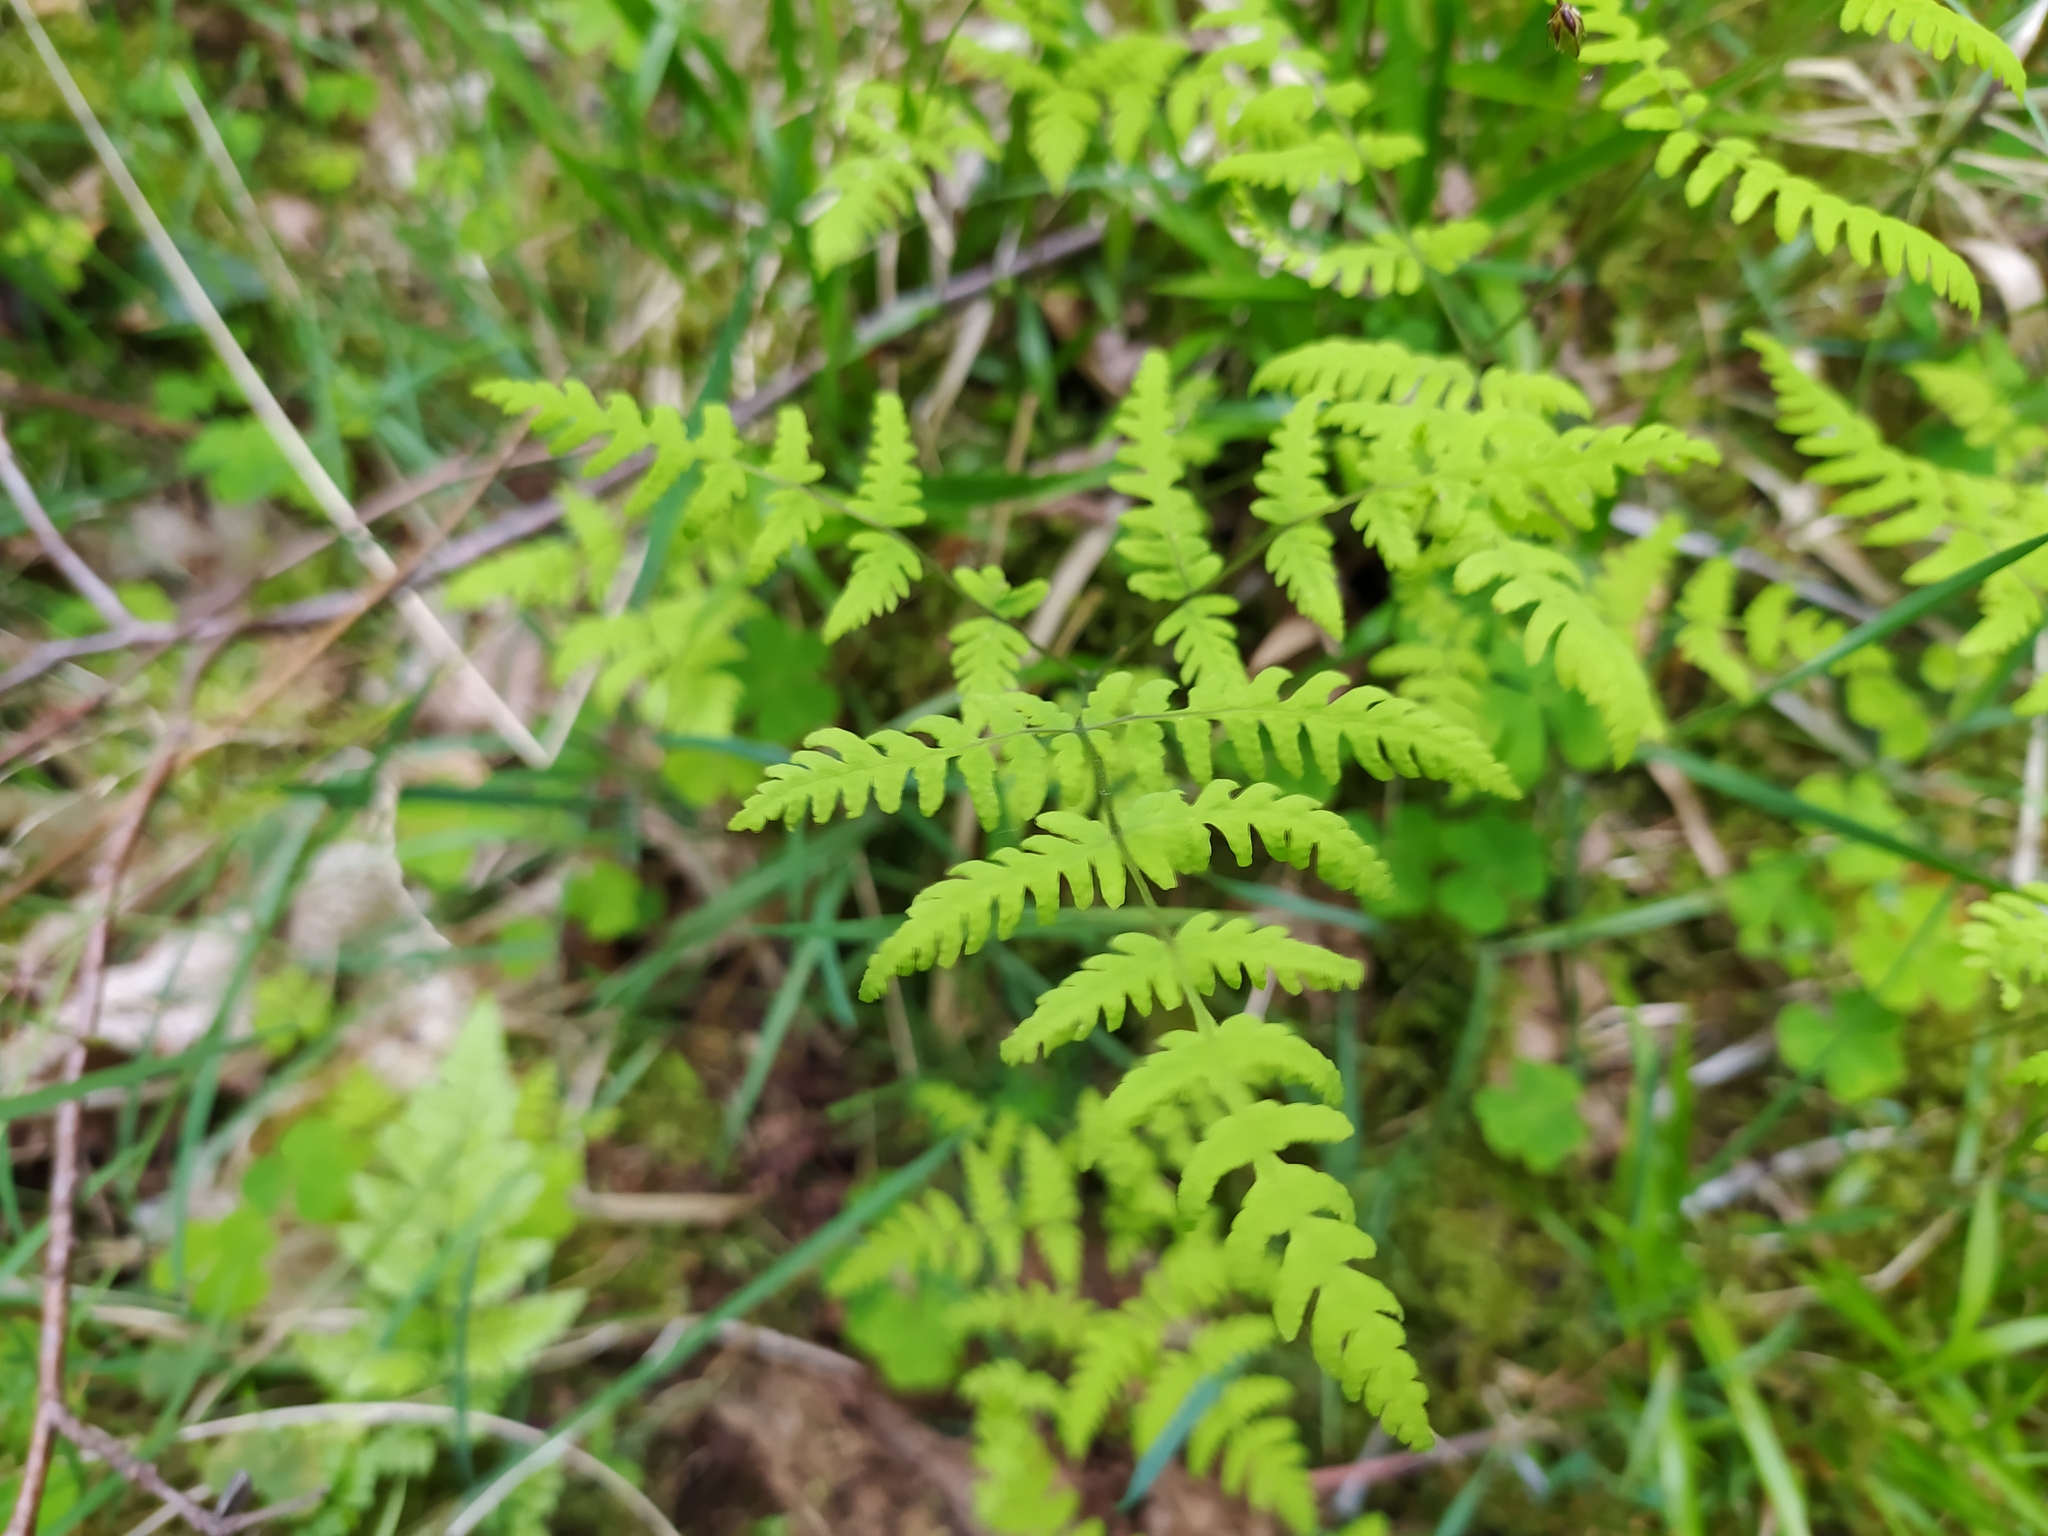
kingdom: Plantae
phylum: Tracheophyta
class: Polypodiopsida
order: Polypodiales
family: Cystopteridaceae
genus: Gymnocarpium
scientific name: Gymnocarpium dryopteris
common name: Oak fern
